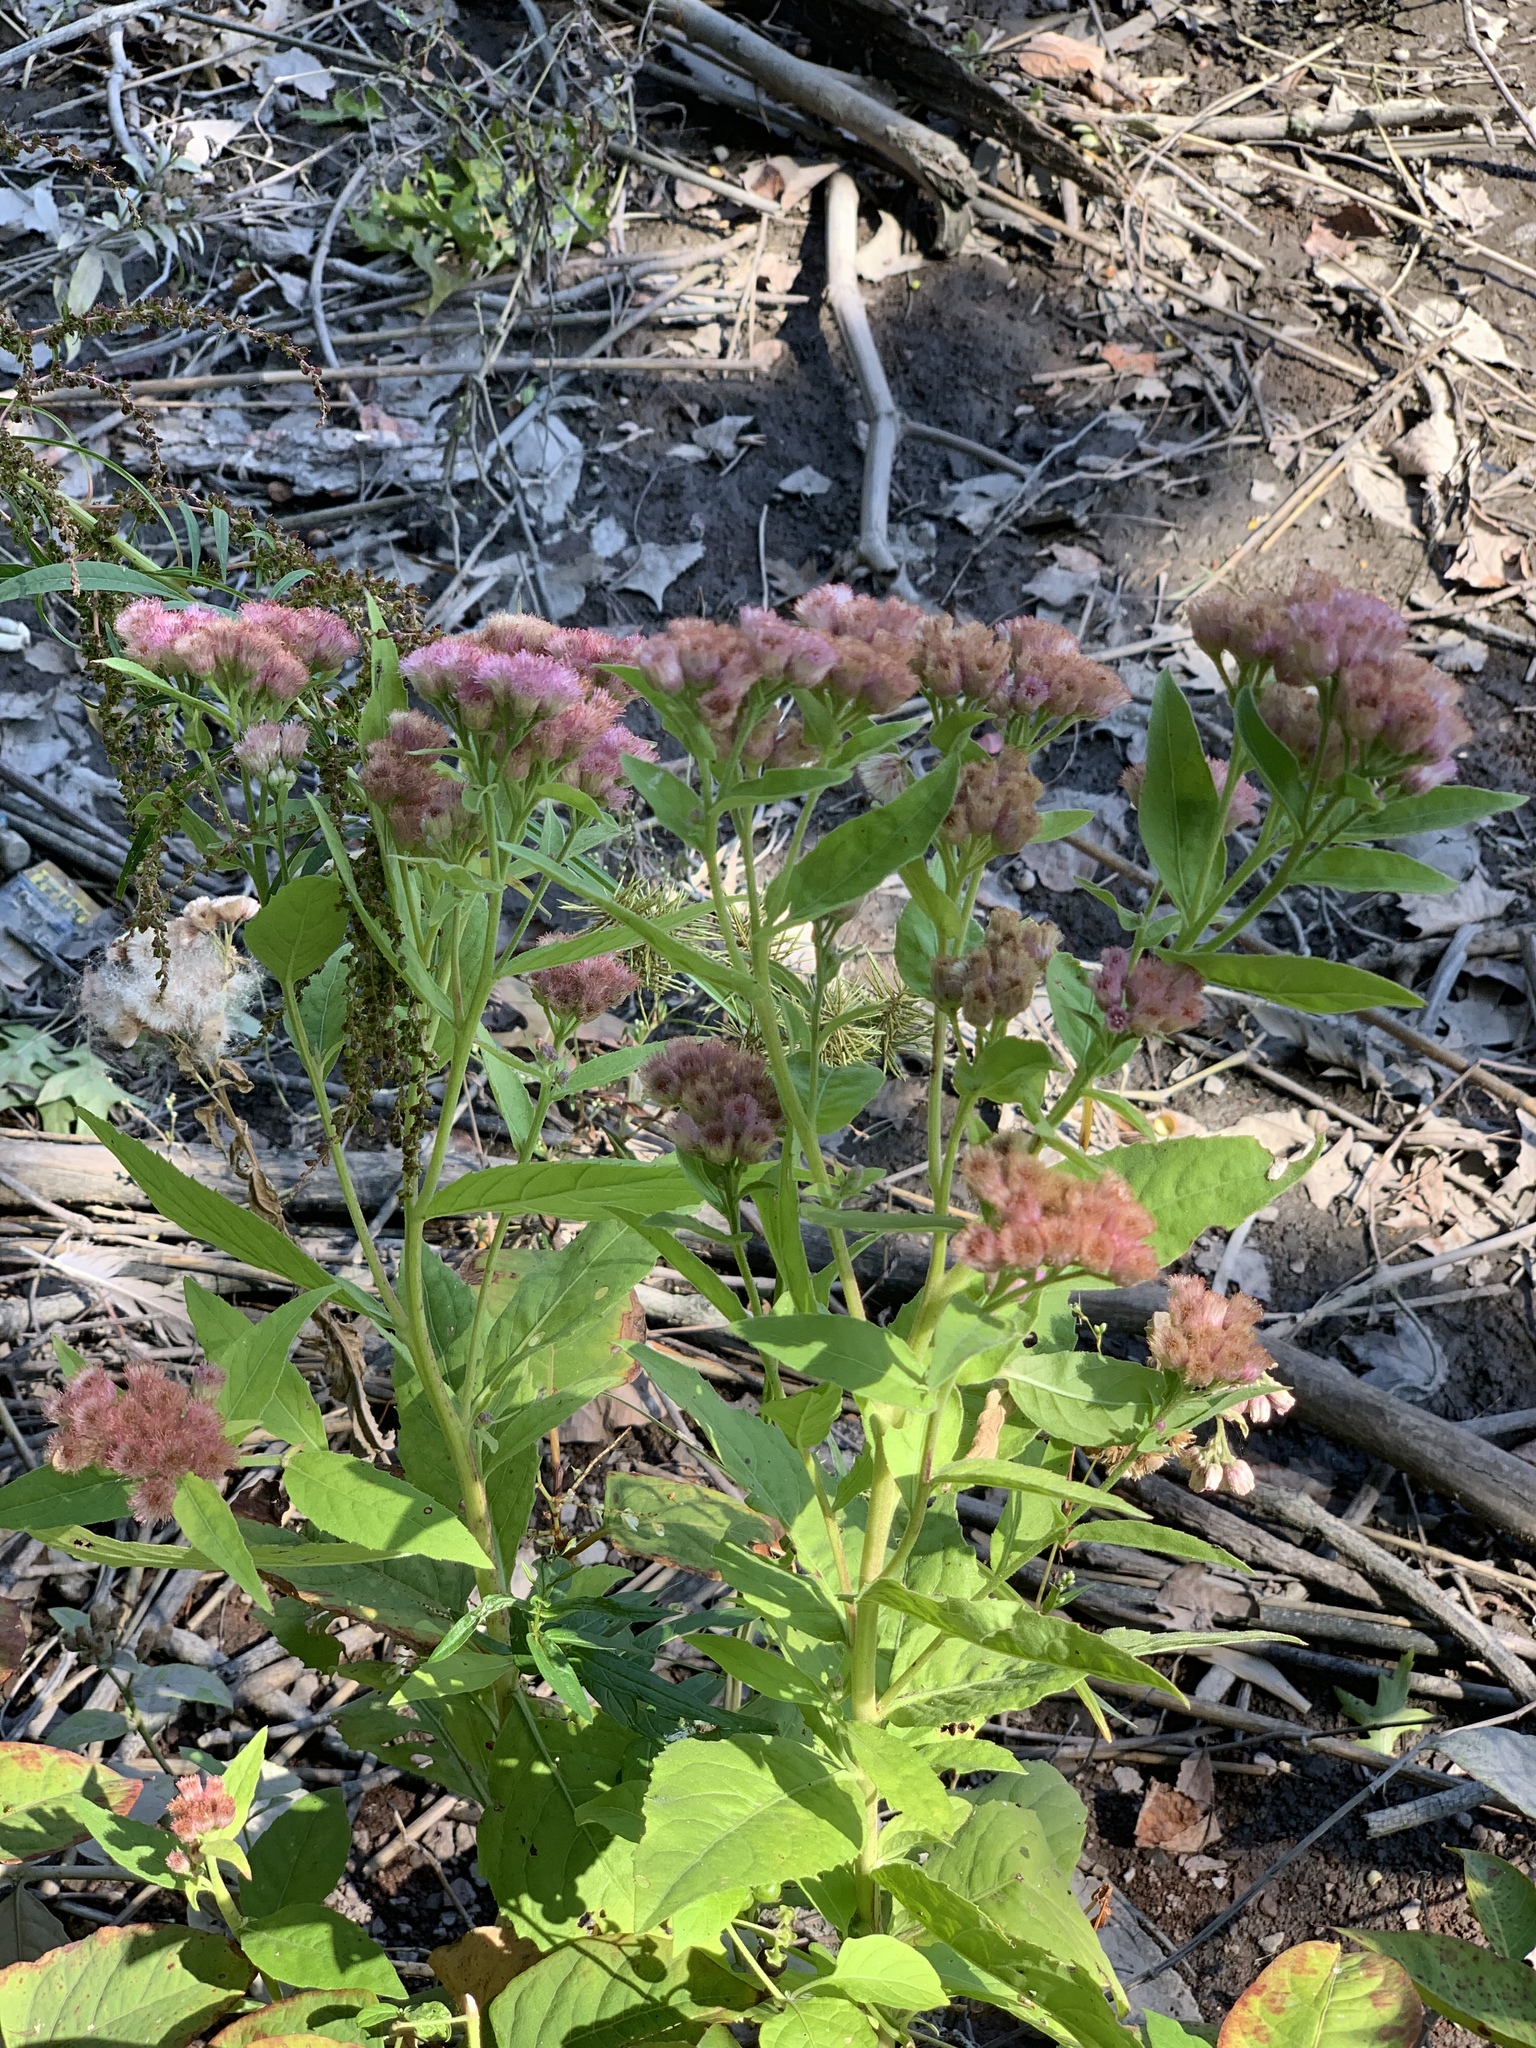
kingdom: Plantae
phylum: Tracheophyta
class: Magnoliopsida
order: Asterales
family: Asteraceae
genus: Pluchea
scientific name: Pluchea odorata
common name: Saltmarsh fleabane
